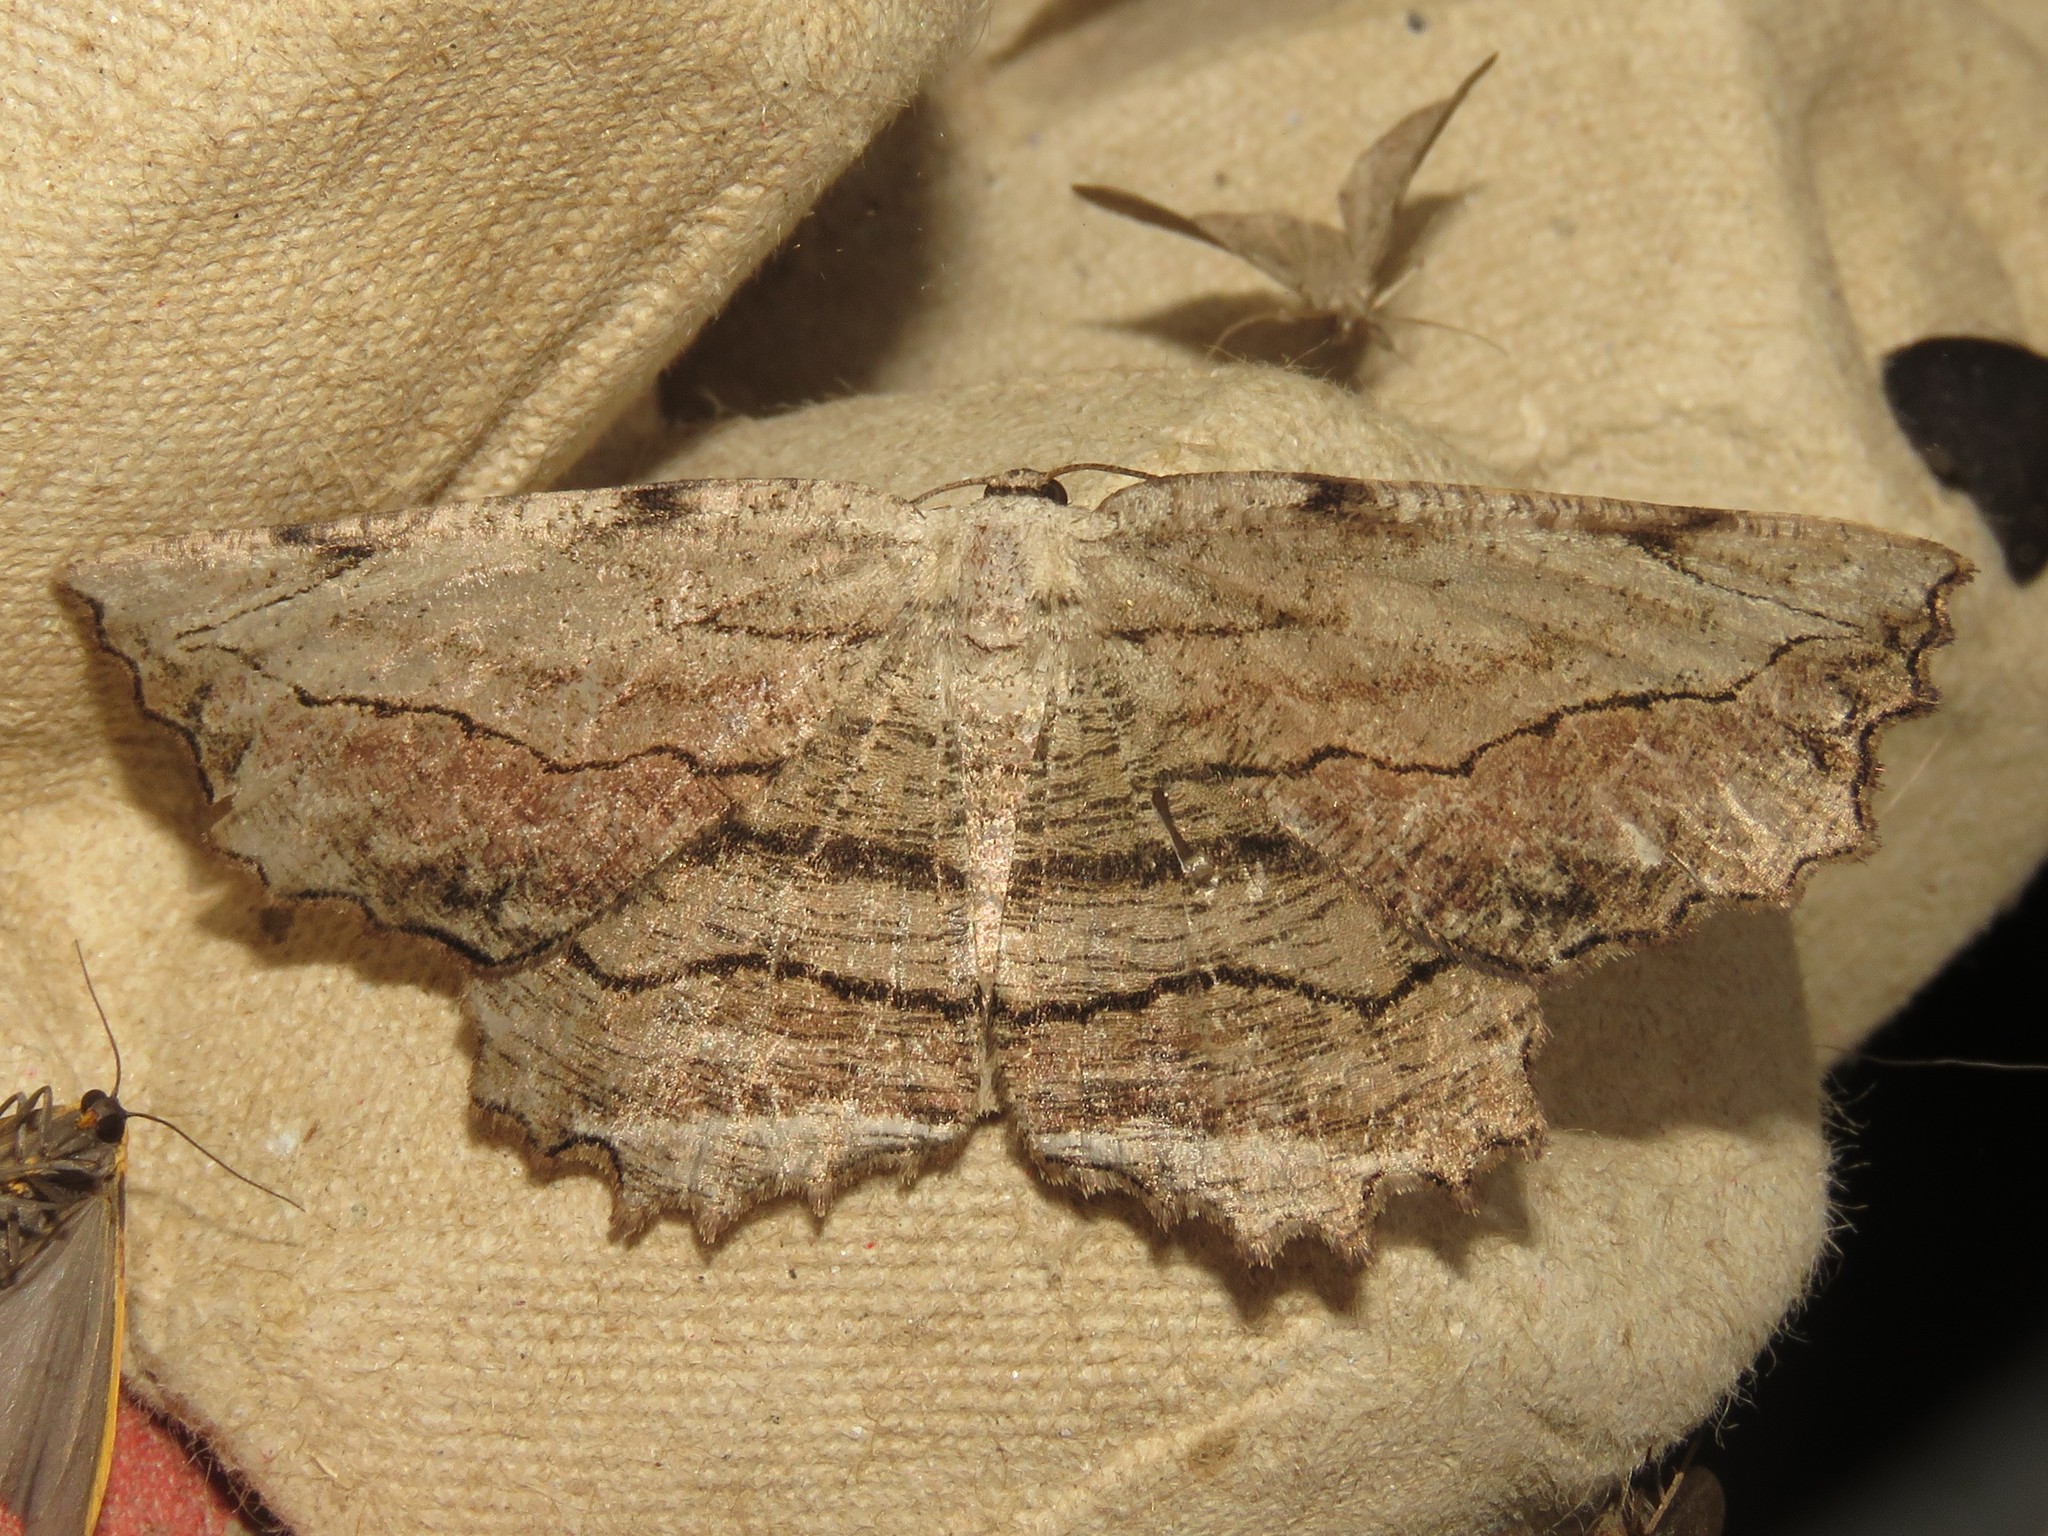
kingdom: Animalia
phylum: Arthropoda
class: Insecta
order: Lepidoptera
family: Geometridae
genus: Lytrosis
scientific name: Lytrosis unitaria
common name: Common lytrosis
